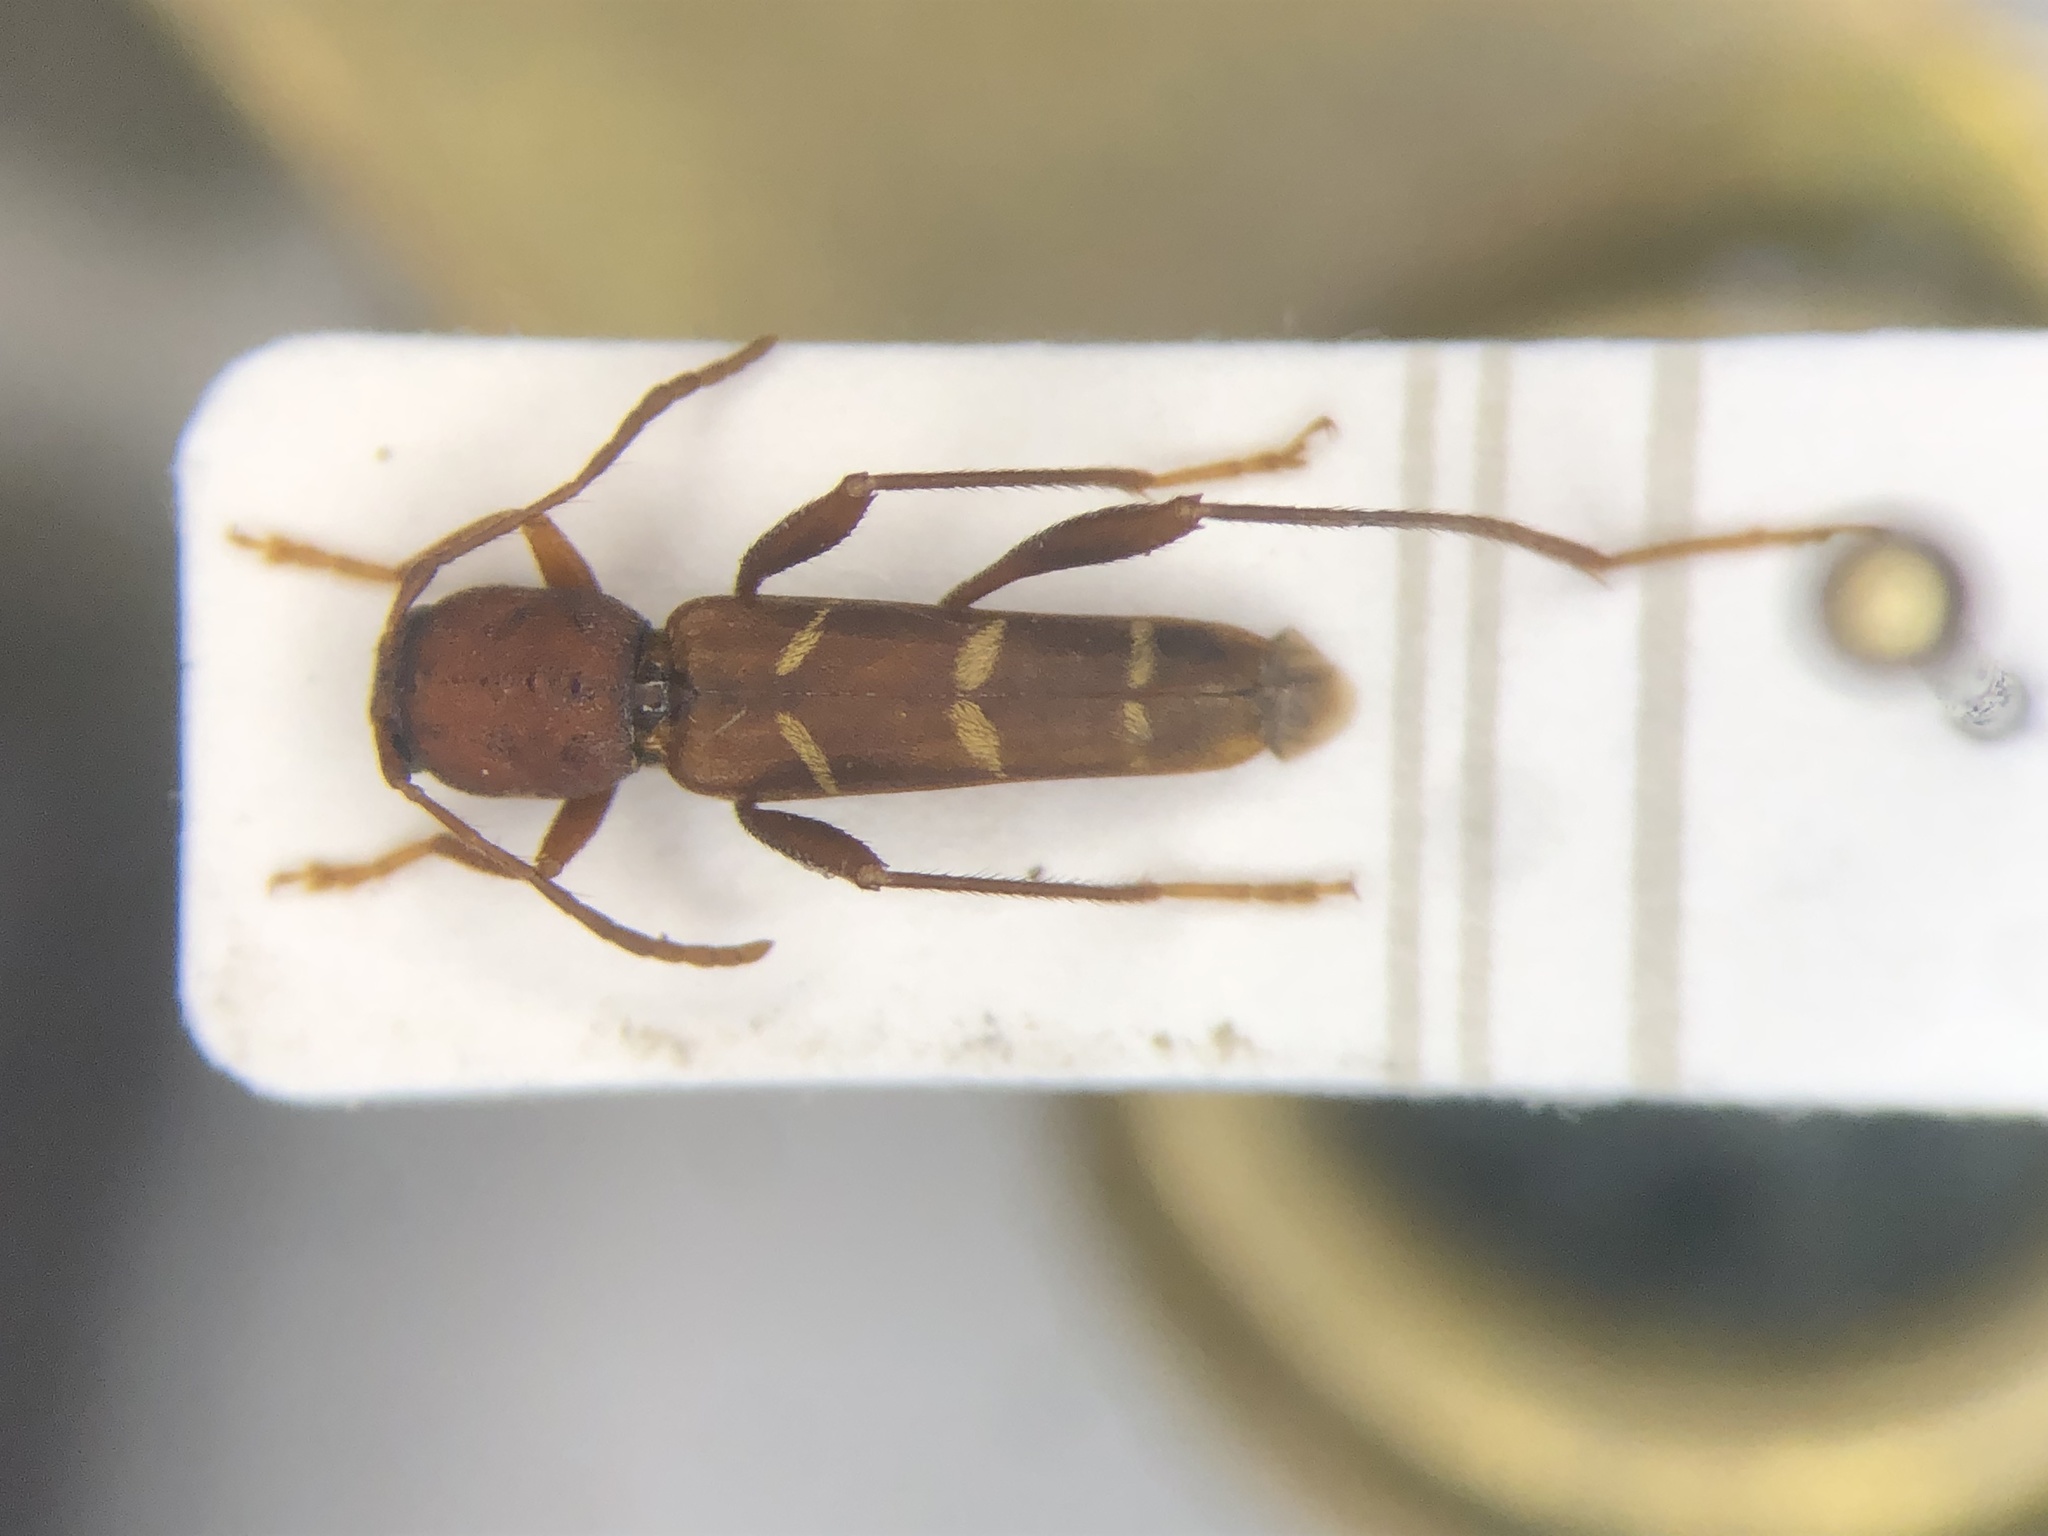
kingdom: Animalia
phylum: Arthropoda
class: Insecta
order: Coleoptera
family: Cerambycidae
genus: Neoclytus
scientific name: Neoclytus acuminatus
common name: Read-headed ash borer
